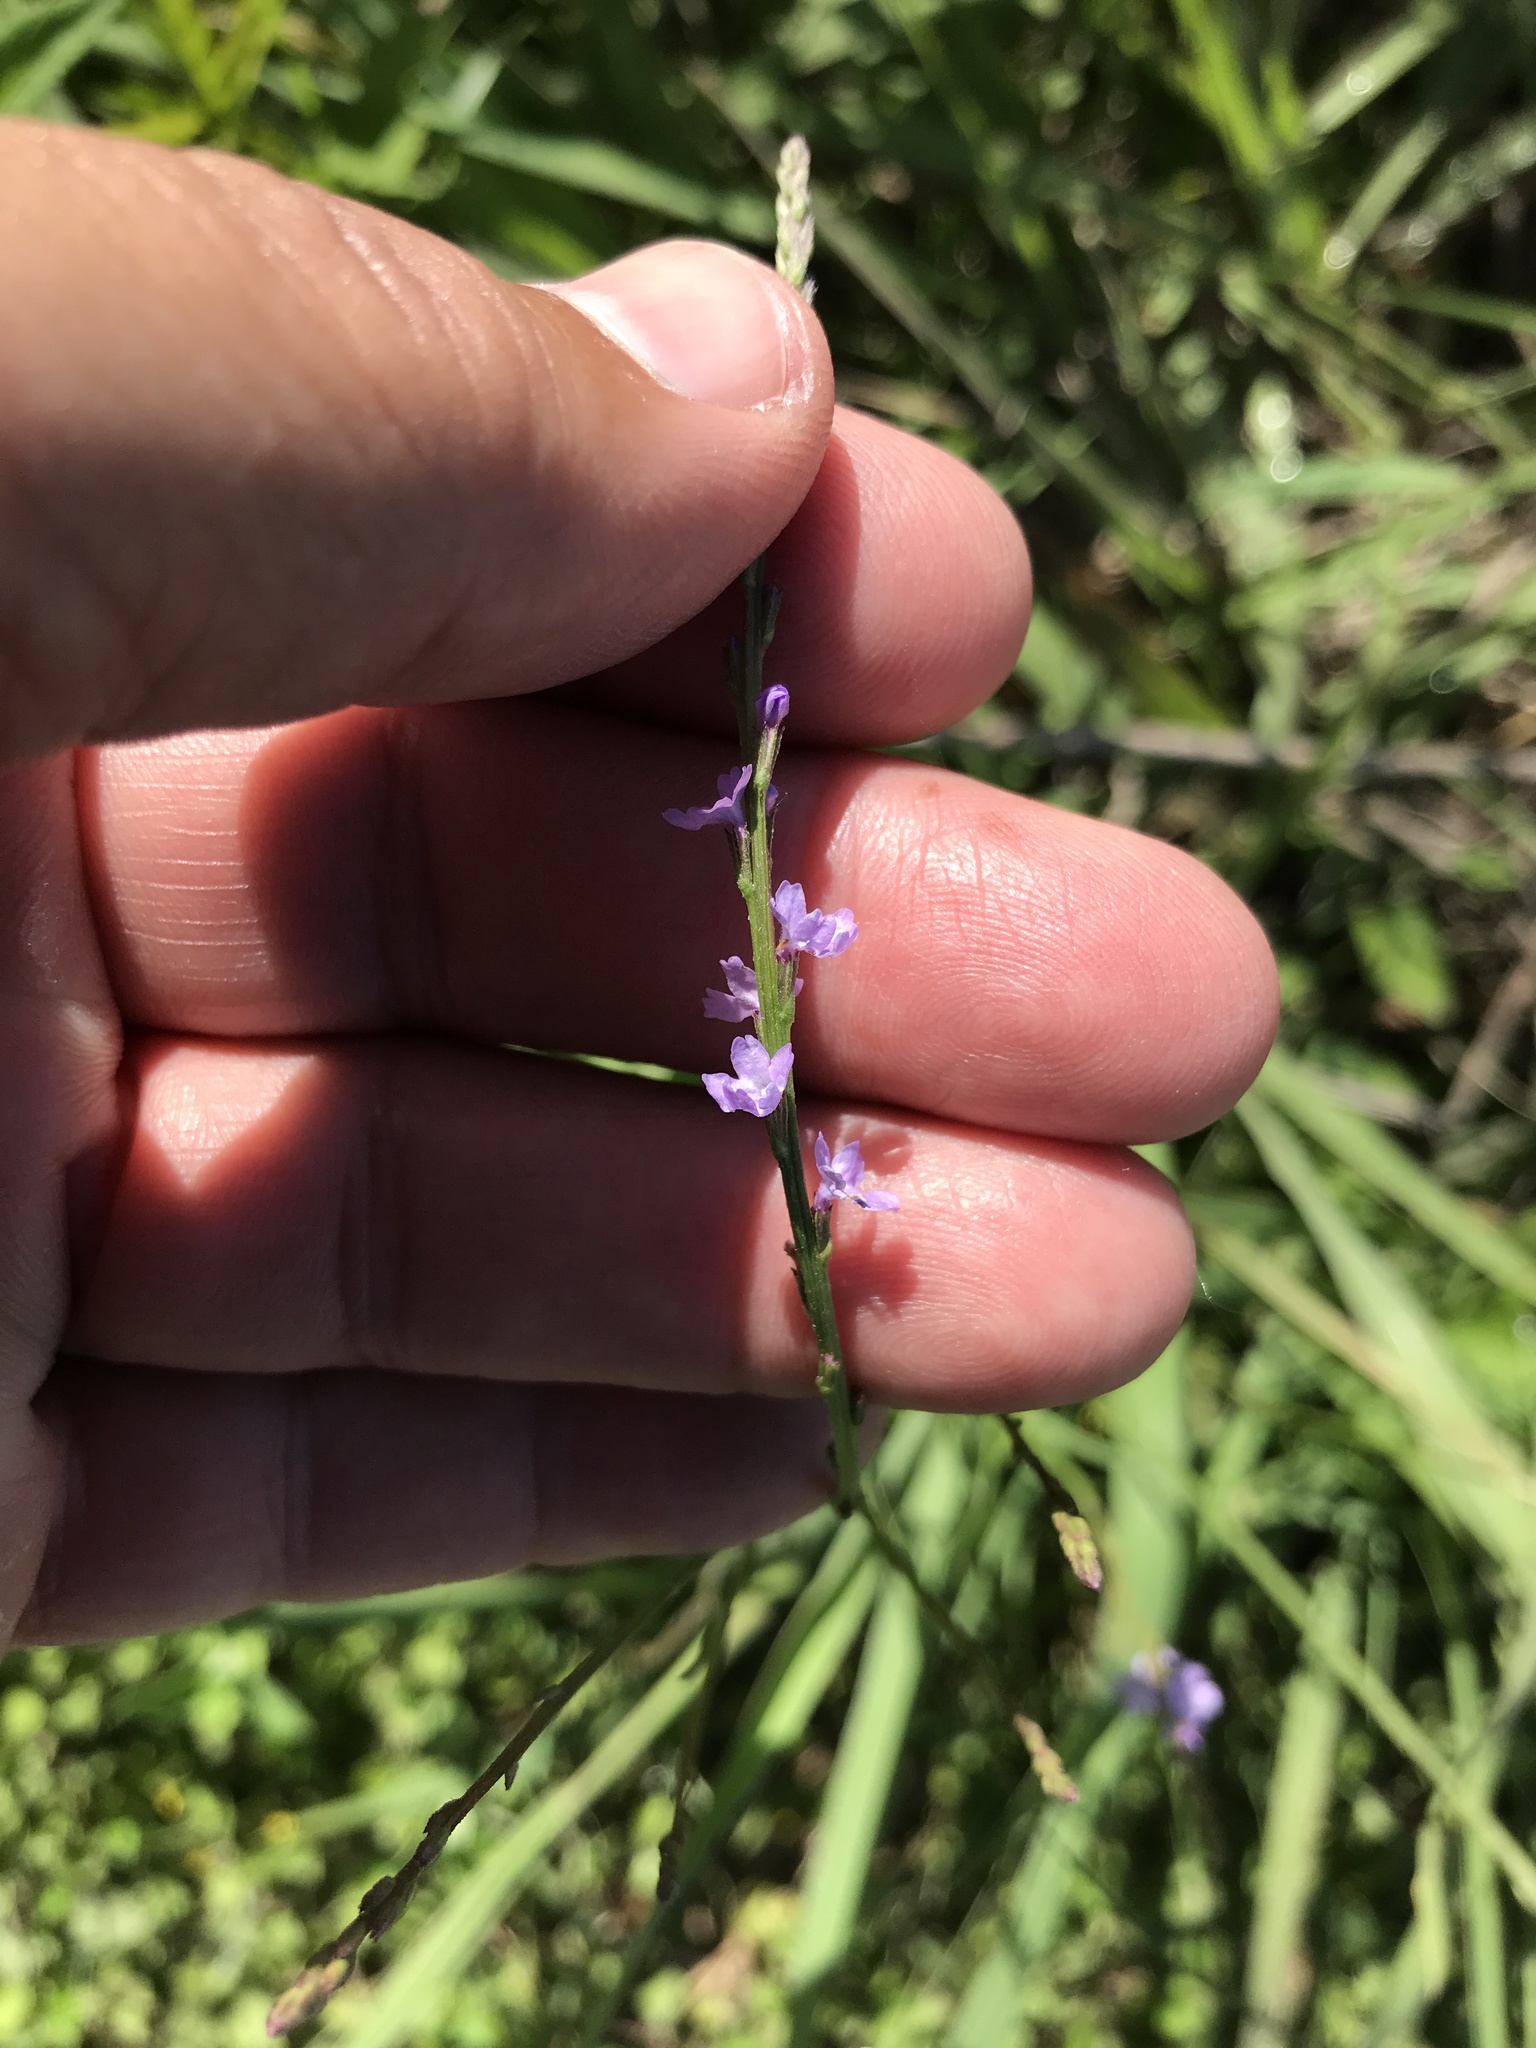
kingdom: Plantae
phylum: Tracheophyta
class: Magnoliopsida
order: Lamiales
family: Verbenaceae
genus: Verbena
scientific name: Verbena halei
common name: Texas vervain
